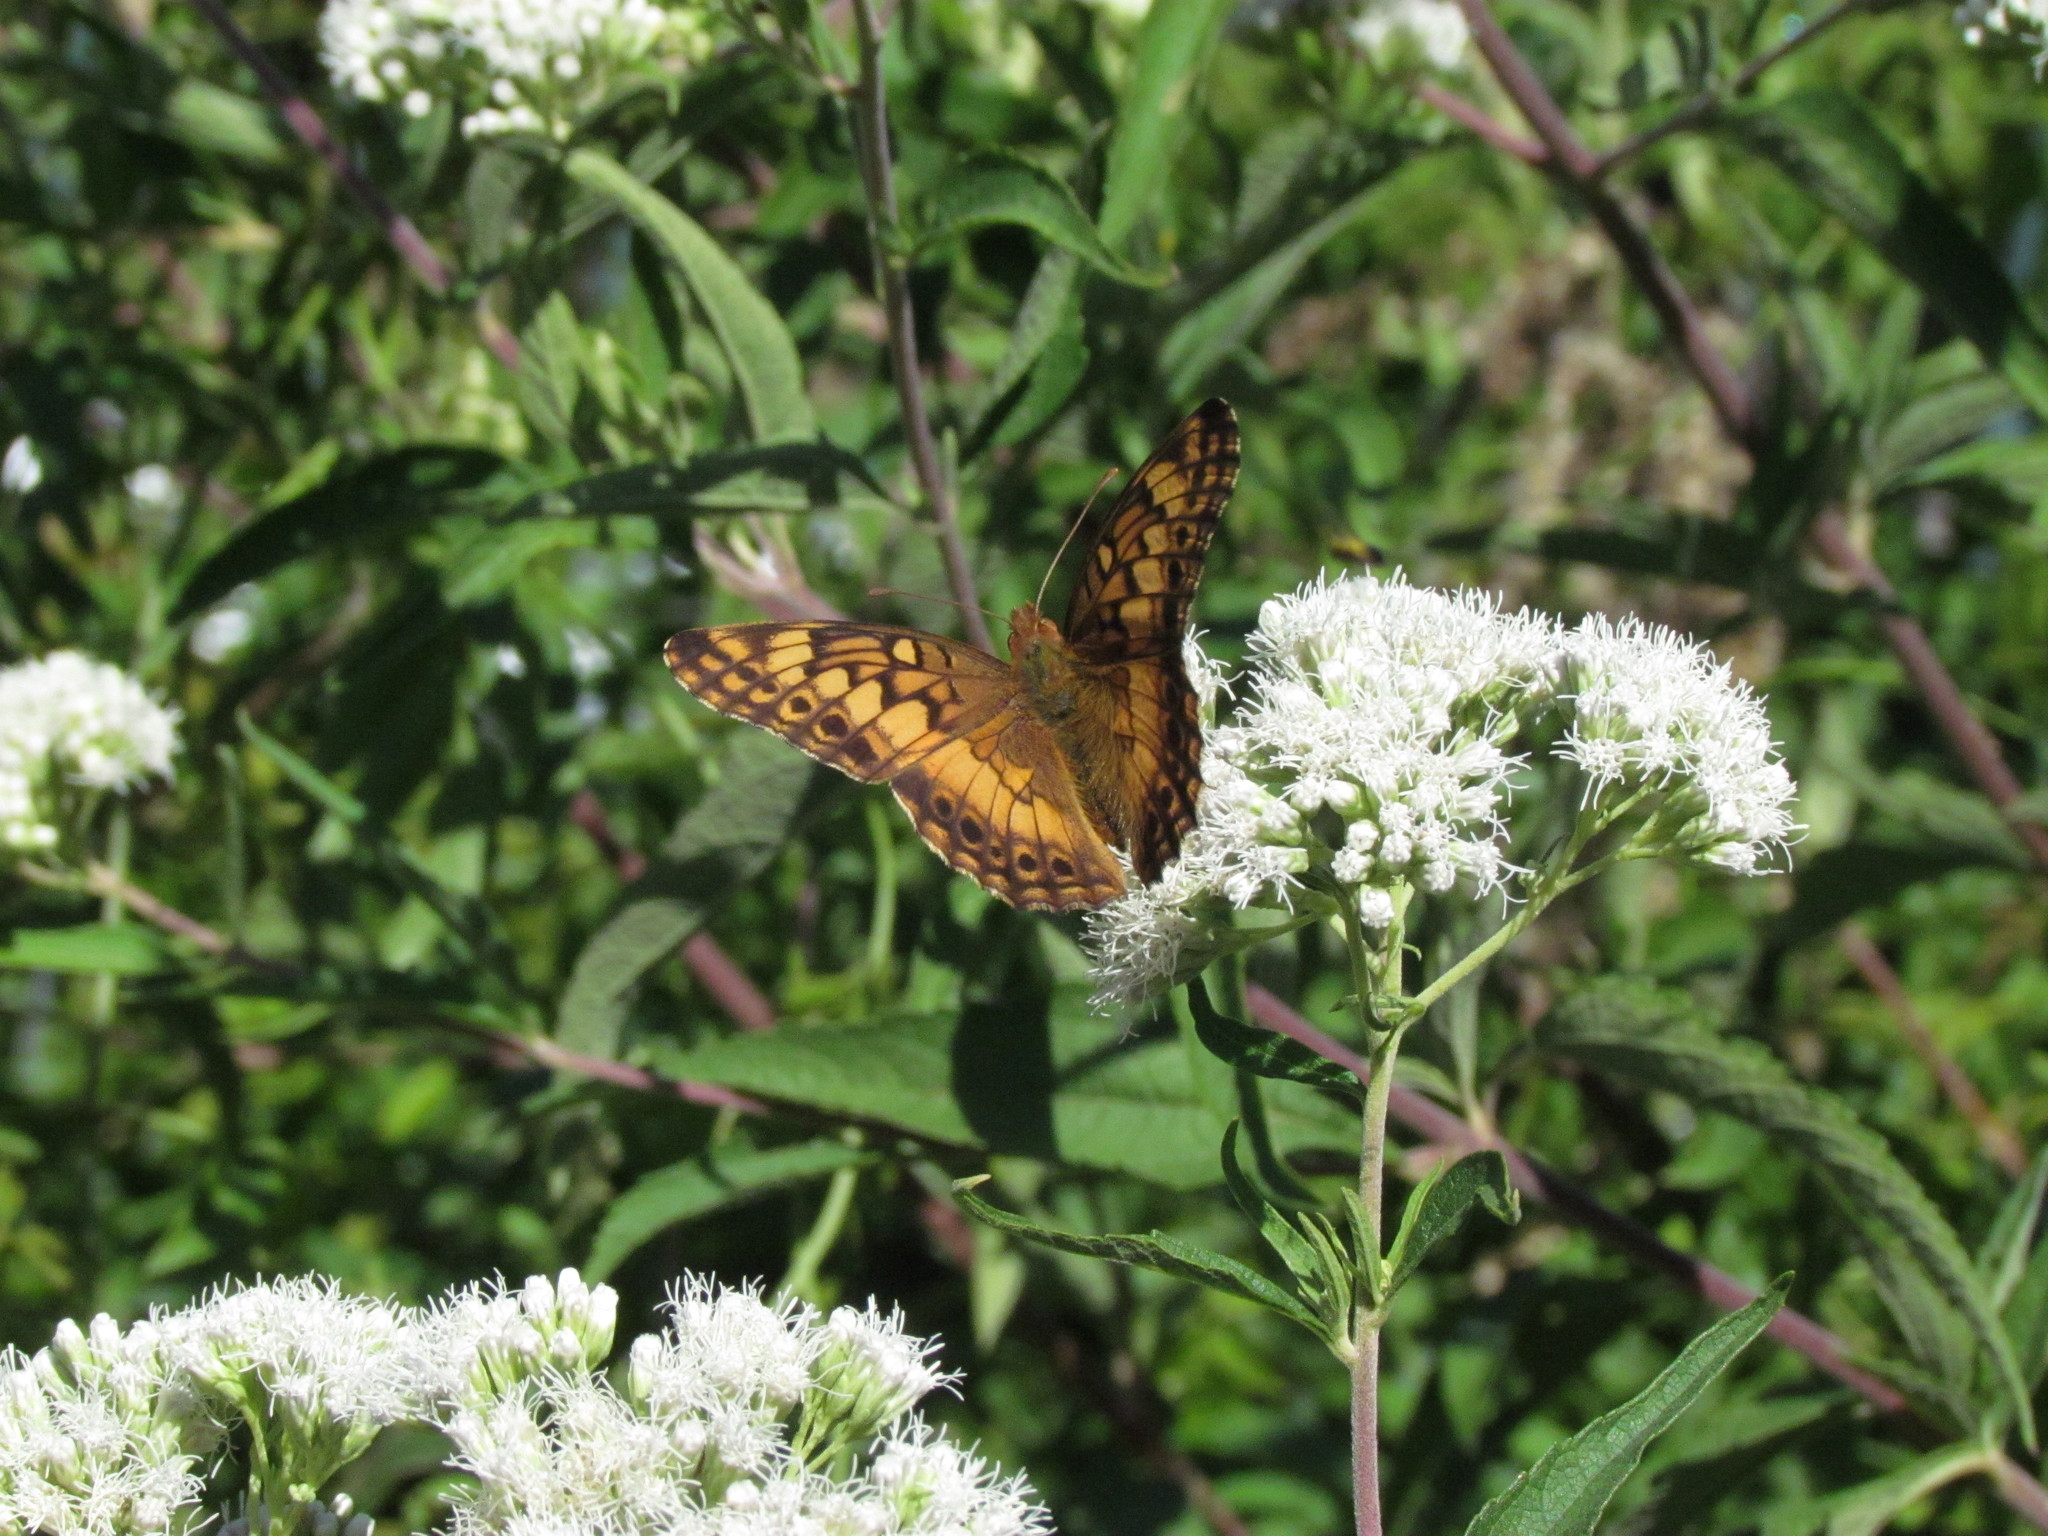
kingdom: Animalia
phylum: Arthropoda
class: Insecta
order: Lepidoptera
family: Nymphalidae
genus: Euptoieta
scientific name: Euptoieta hortensia
